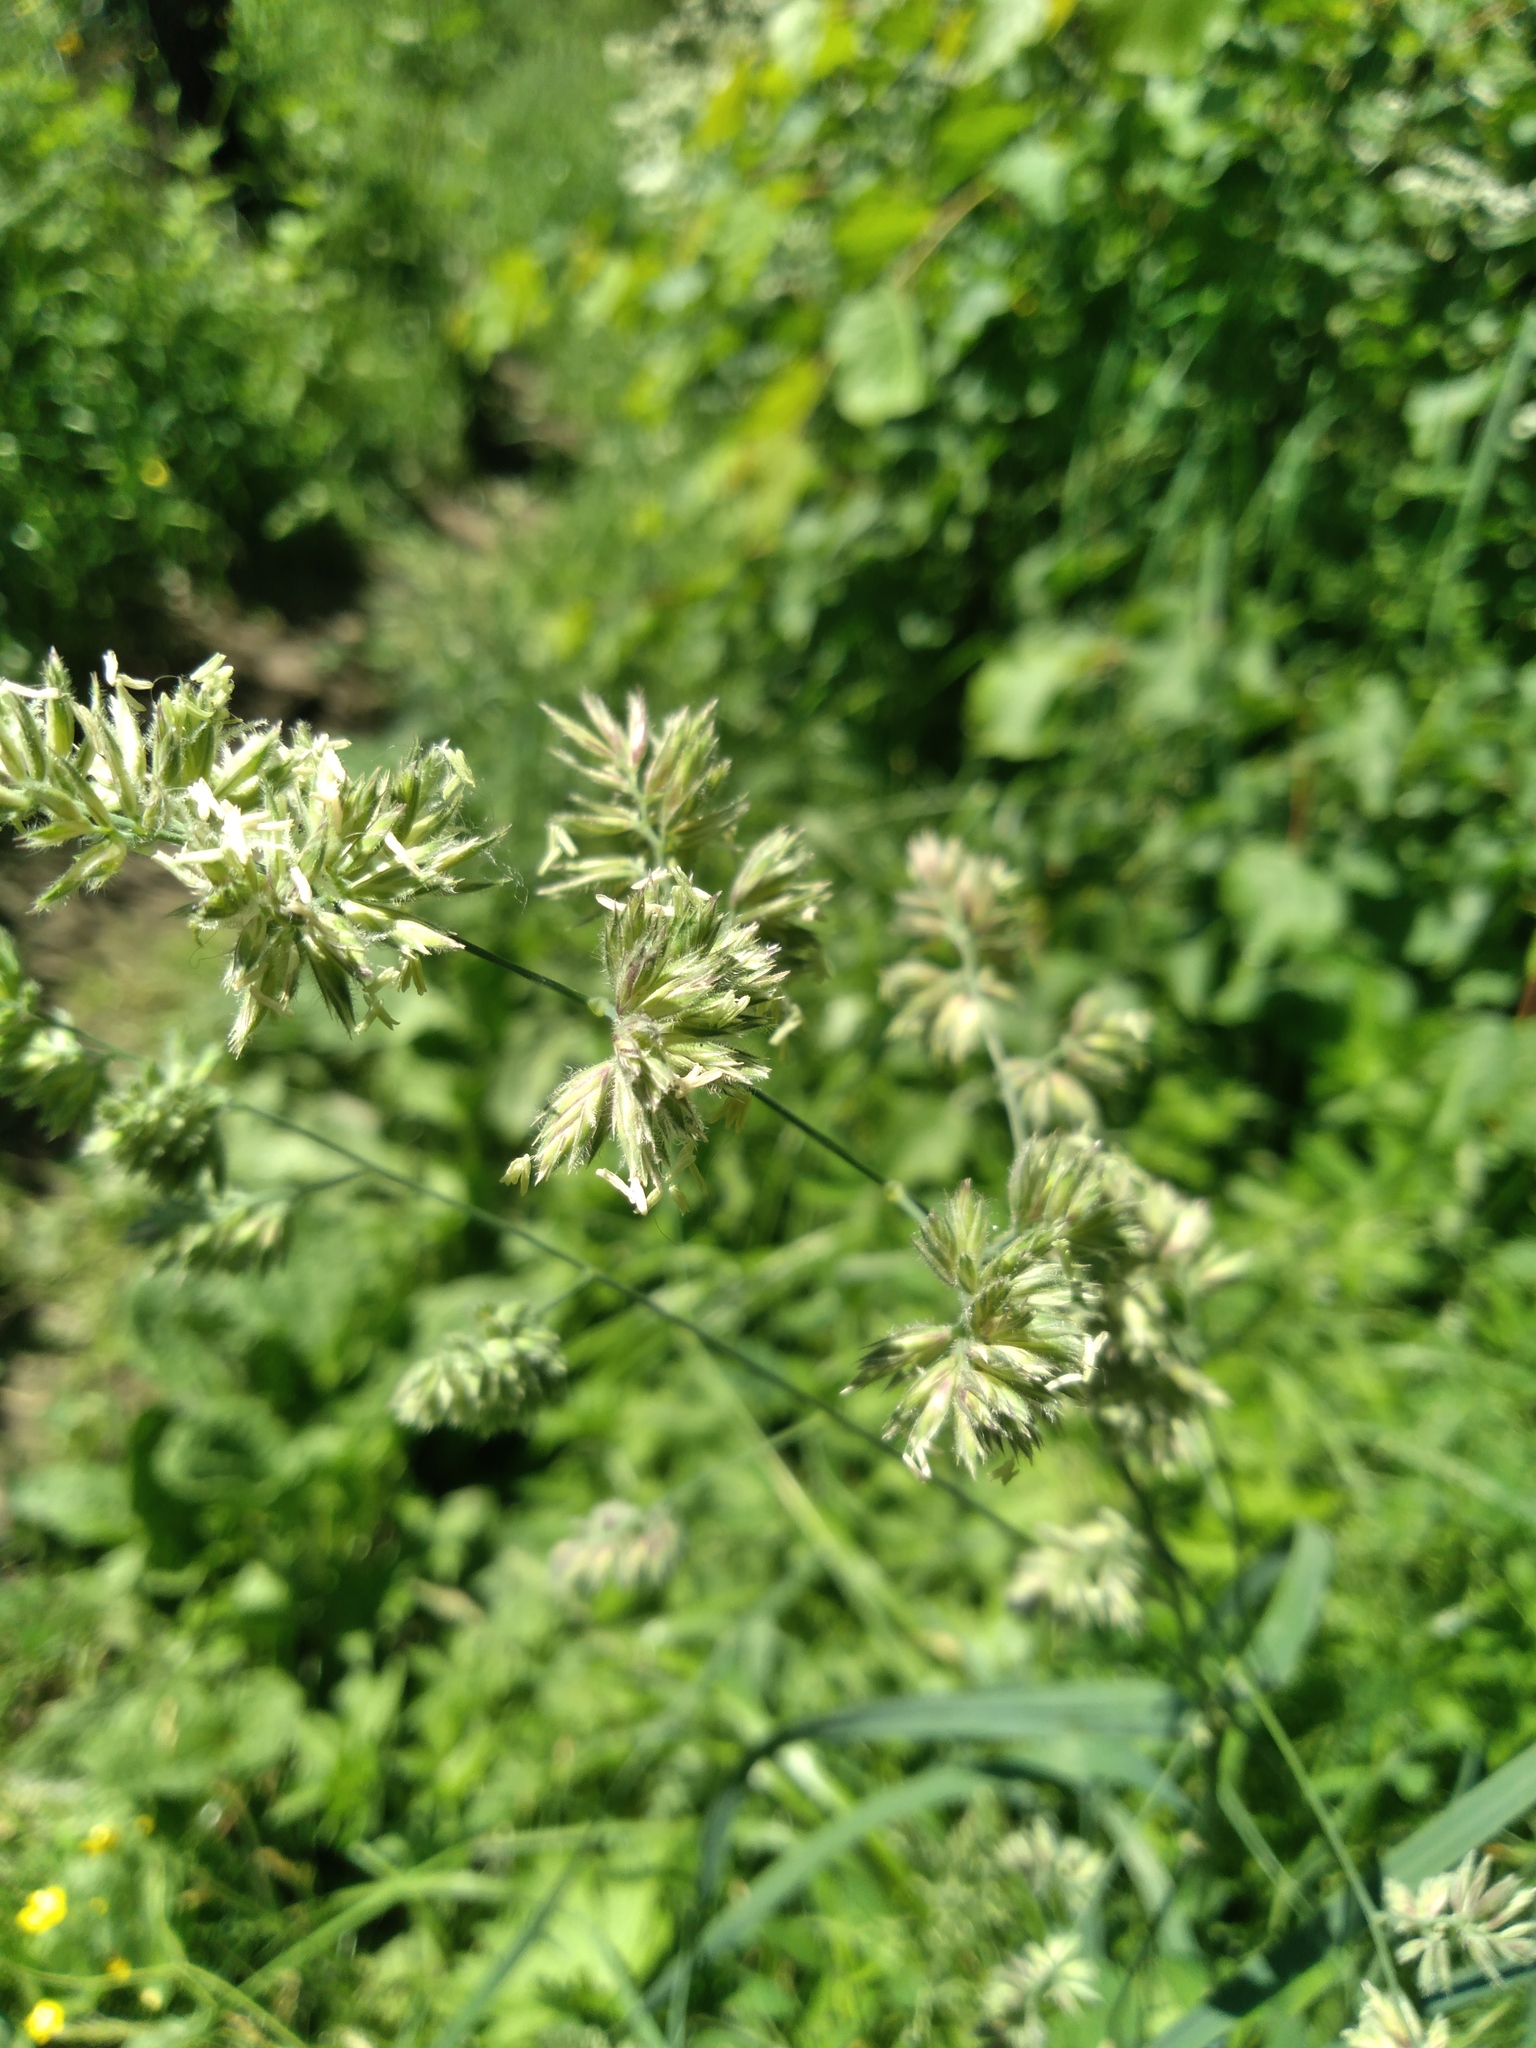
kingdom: Plantae
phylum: Tracheophyta
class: Liliopsida
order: Poales
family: Poaceae
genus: Dactylis
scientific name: Dactylis glomerata
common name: Orchardgrass
